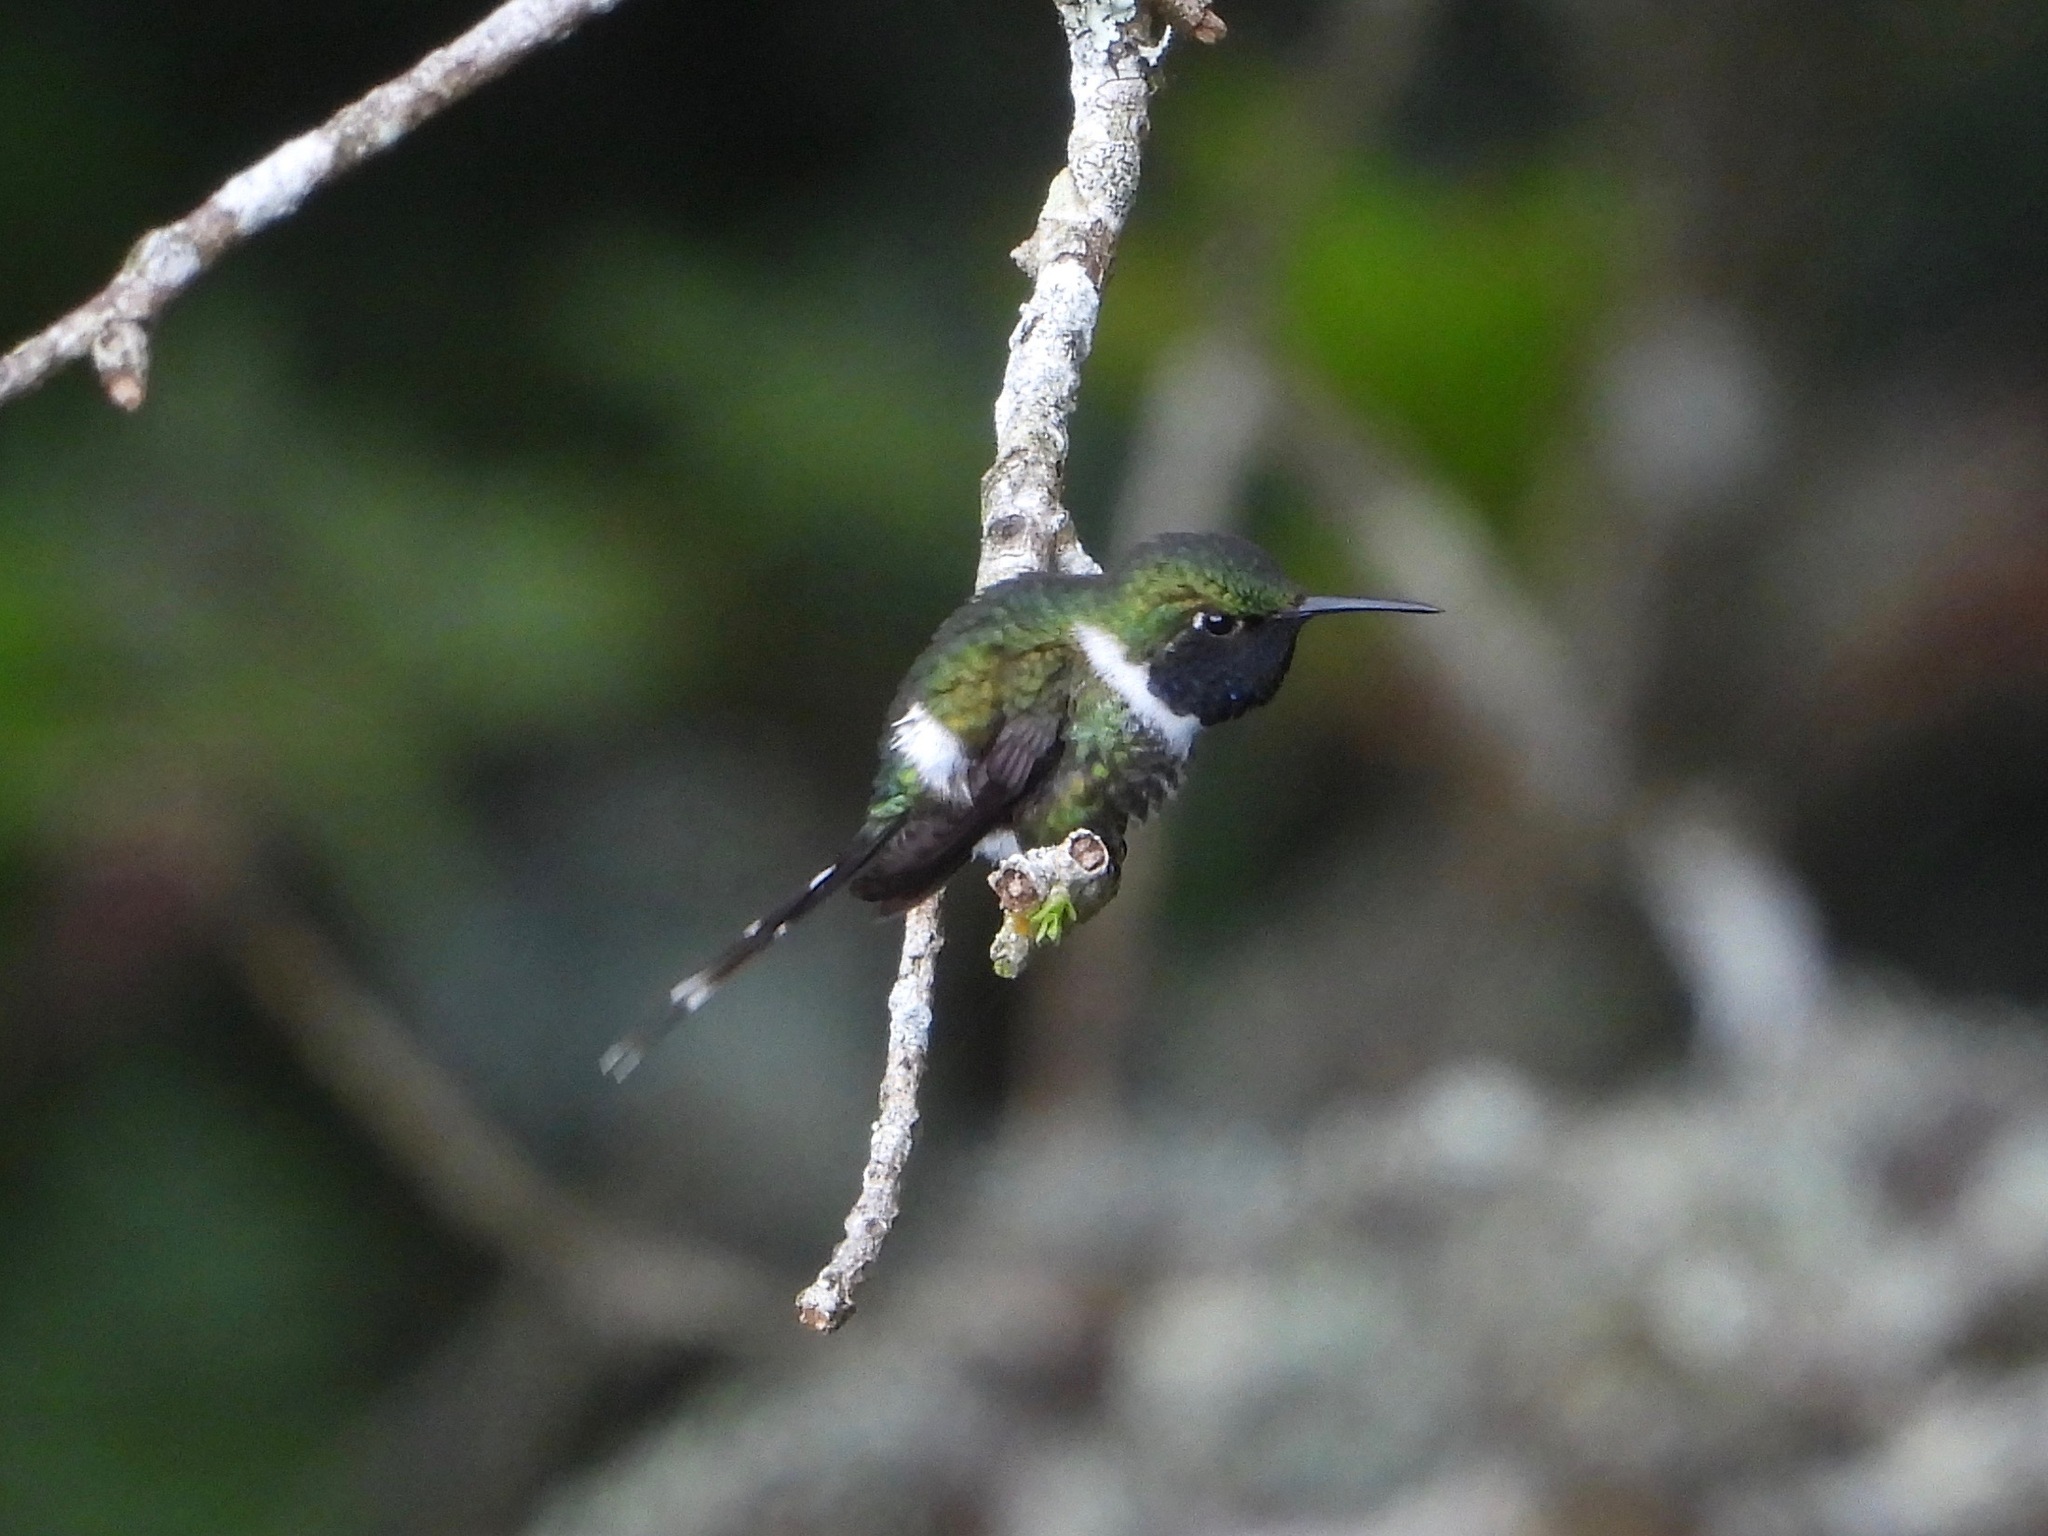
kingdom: Animalia
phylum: Chordata
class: Aves
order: Apodiformes
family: Trochilidae
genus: Tilmatura
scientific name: Tilmatura dupontii
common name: Sparkling-tailed woodstar
